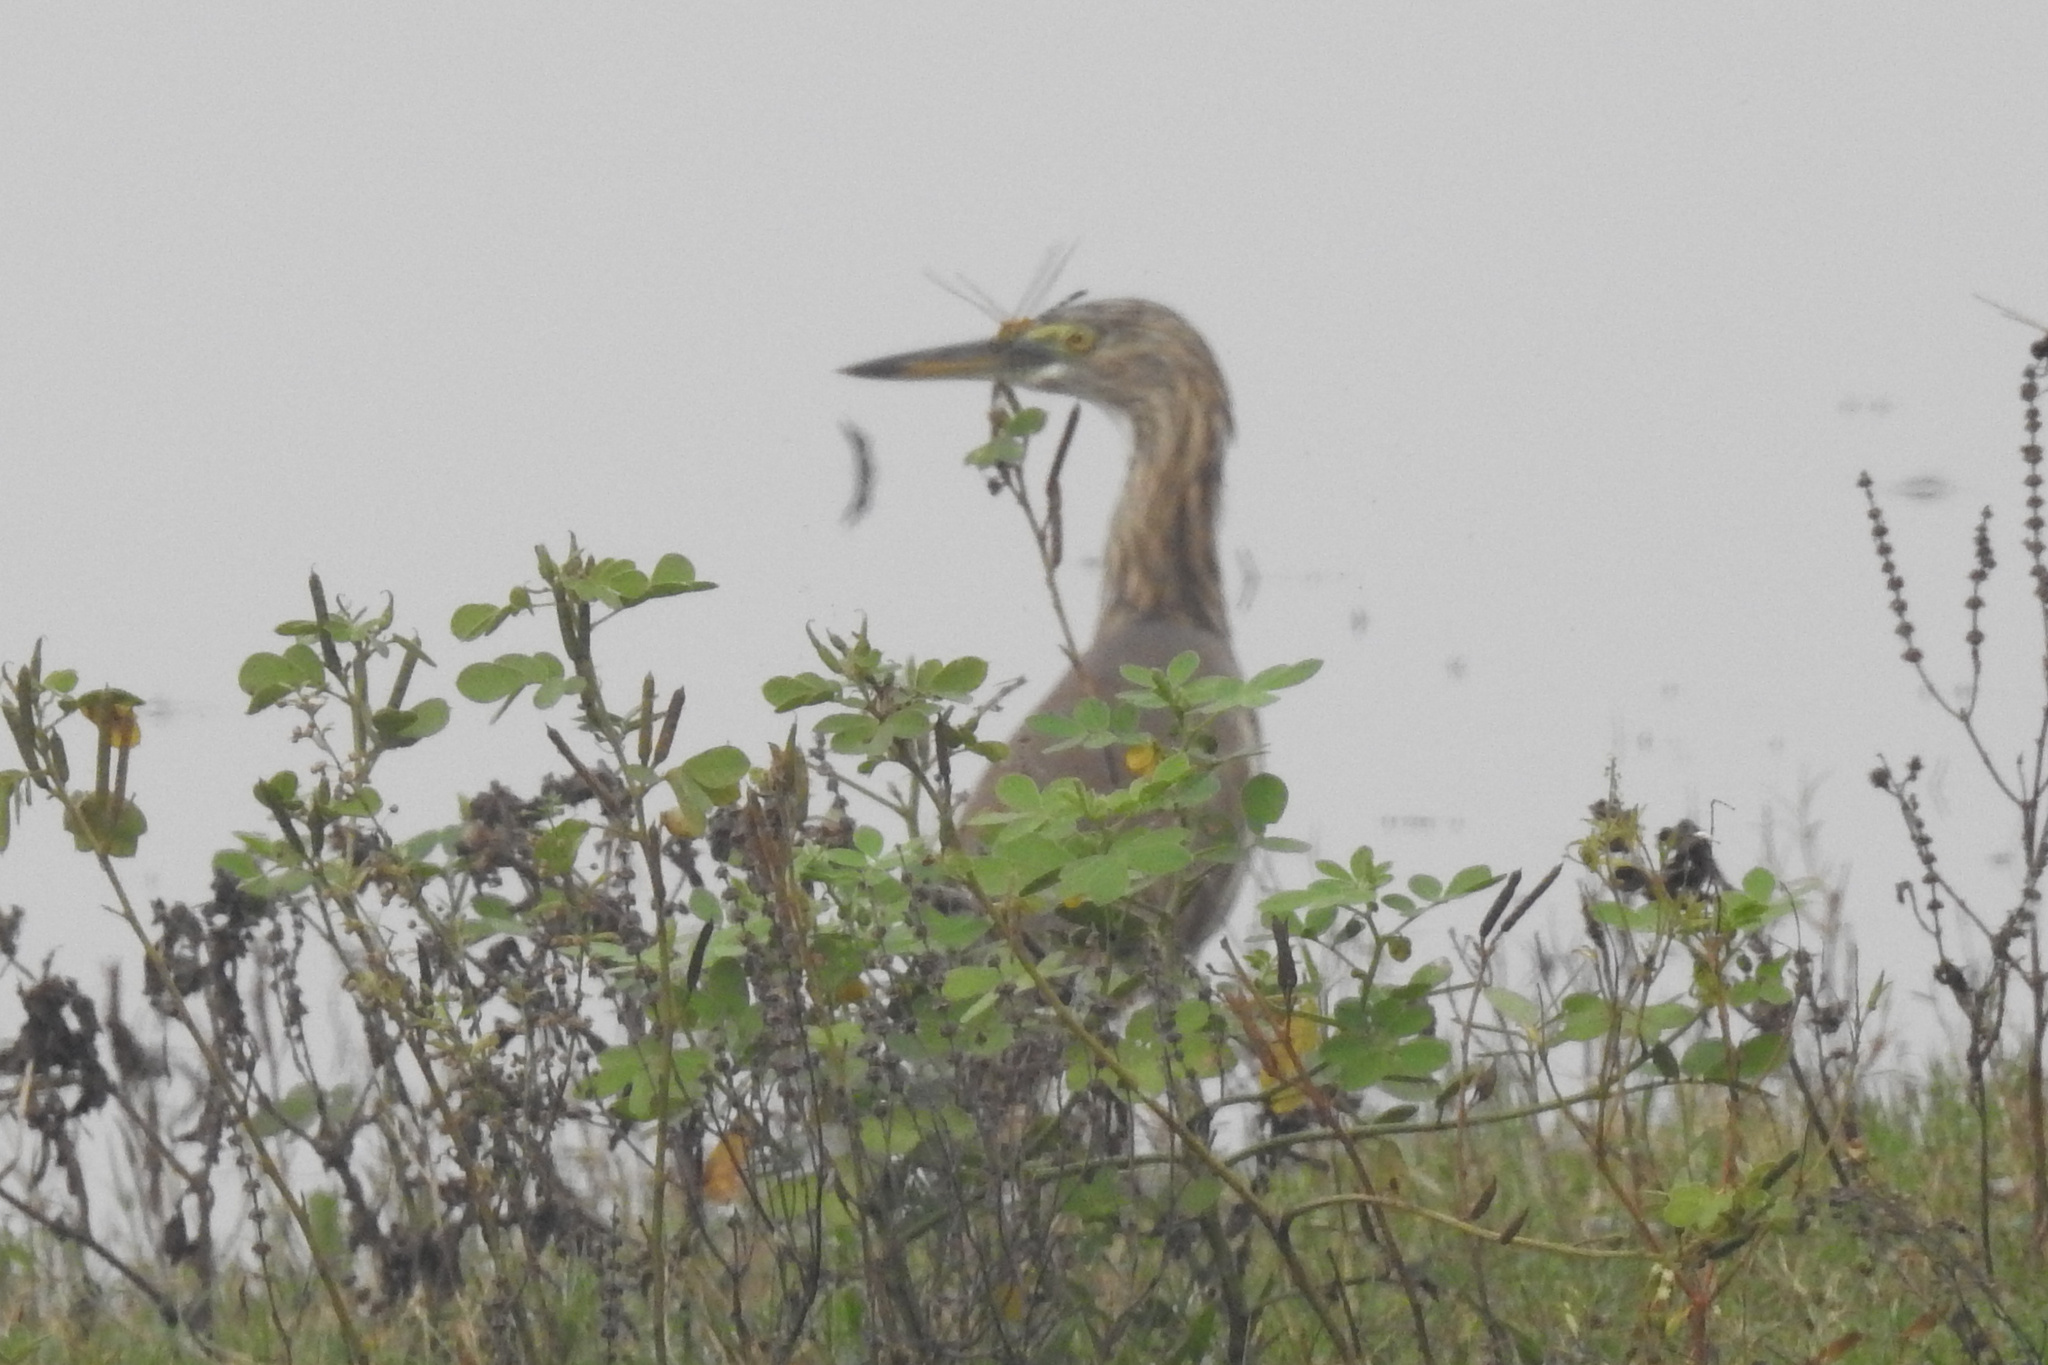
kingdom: Animalia
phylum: Chordata
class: Aves
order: Pelecaniformes
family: Ardeidae
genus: Ardeola
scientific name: Ardeola grayii
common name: Indian pond heron
